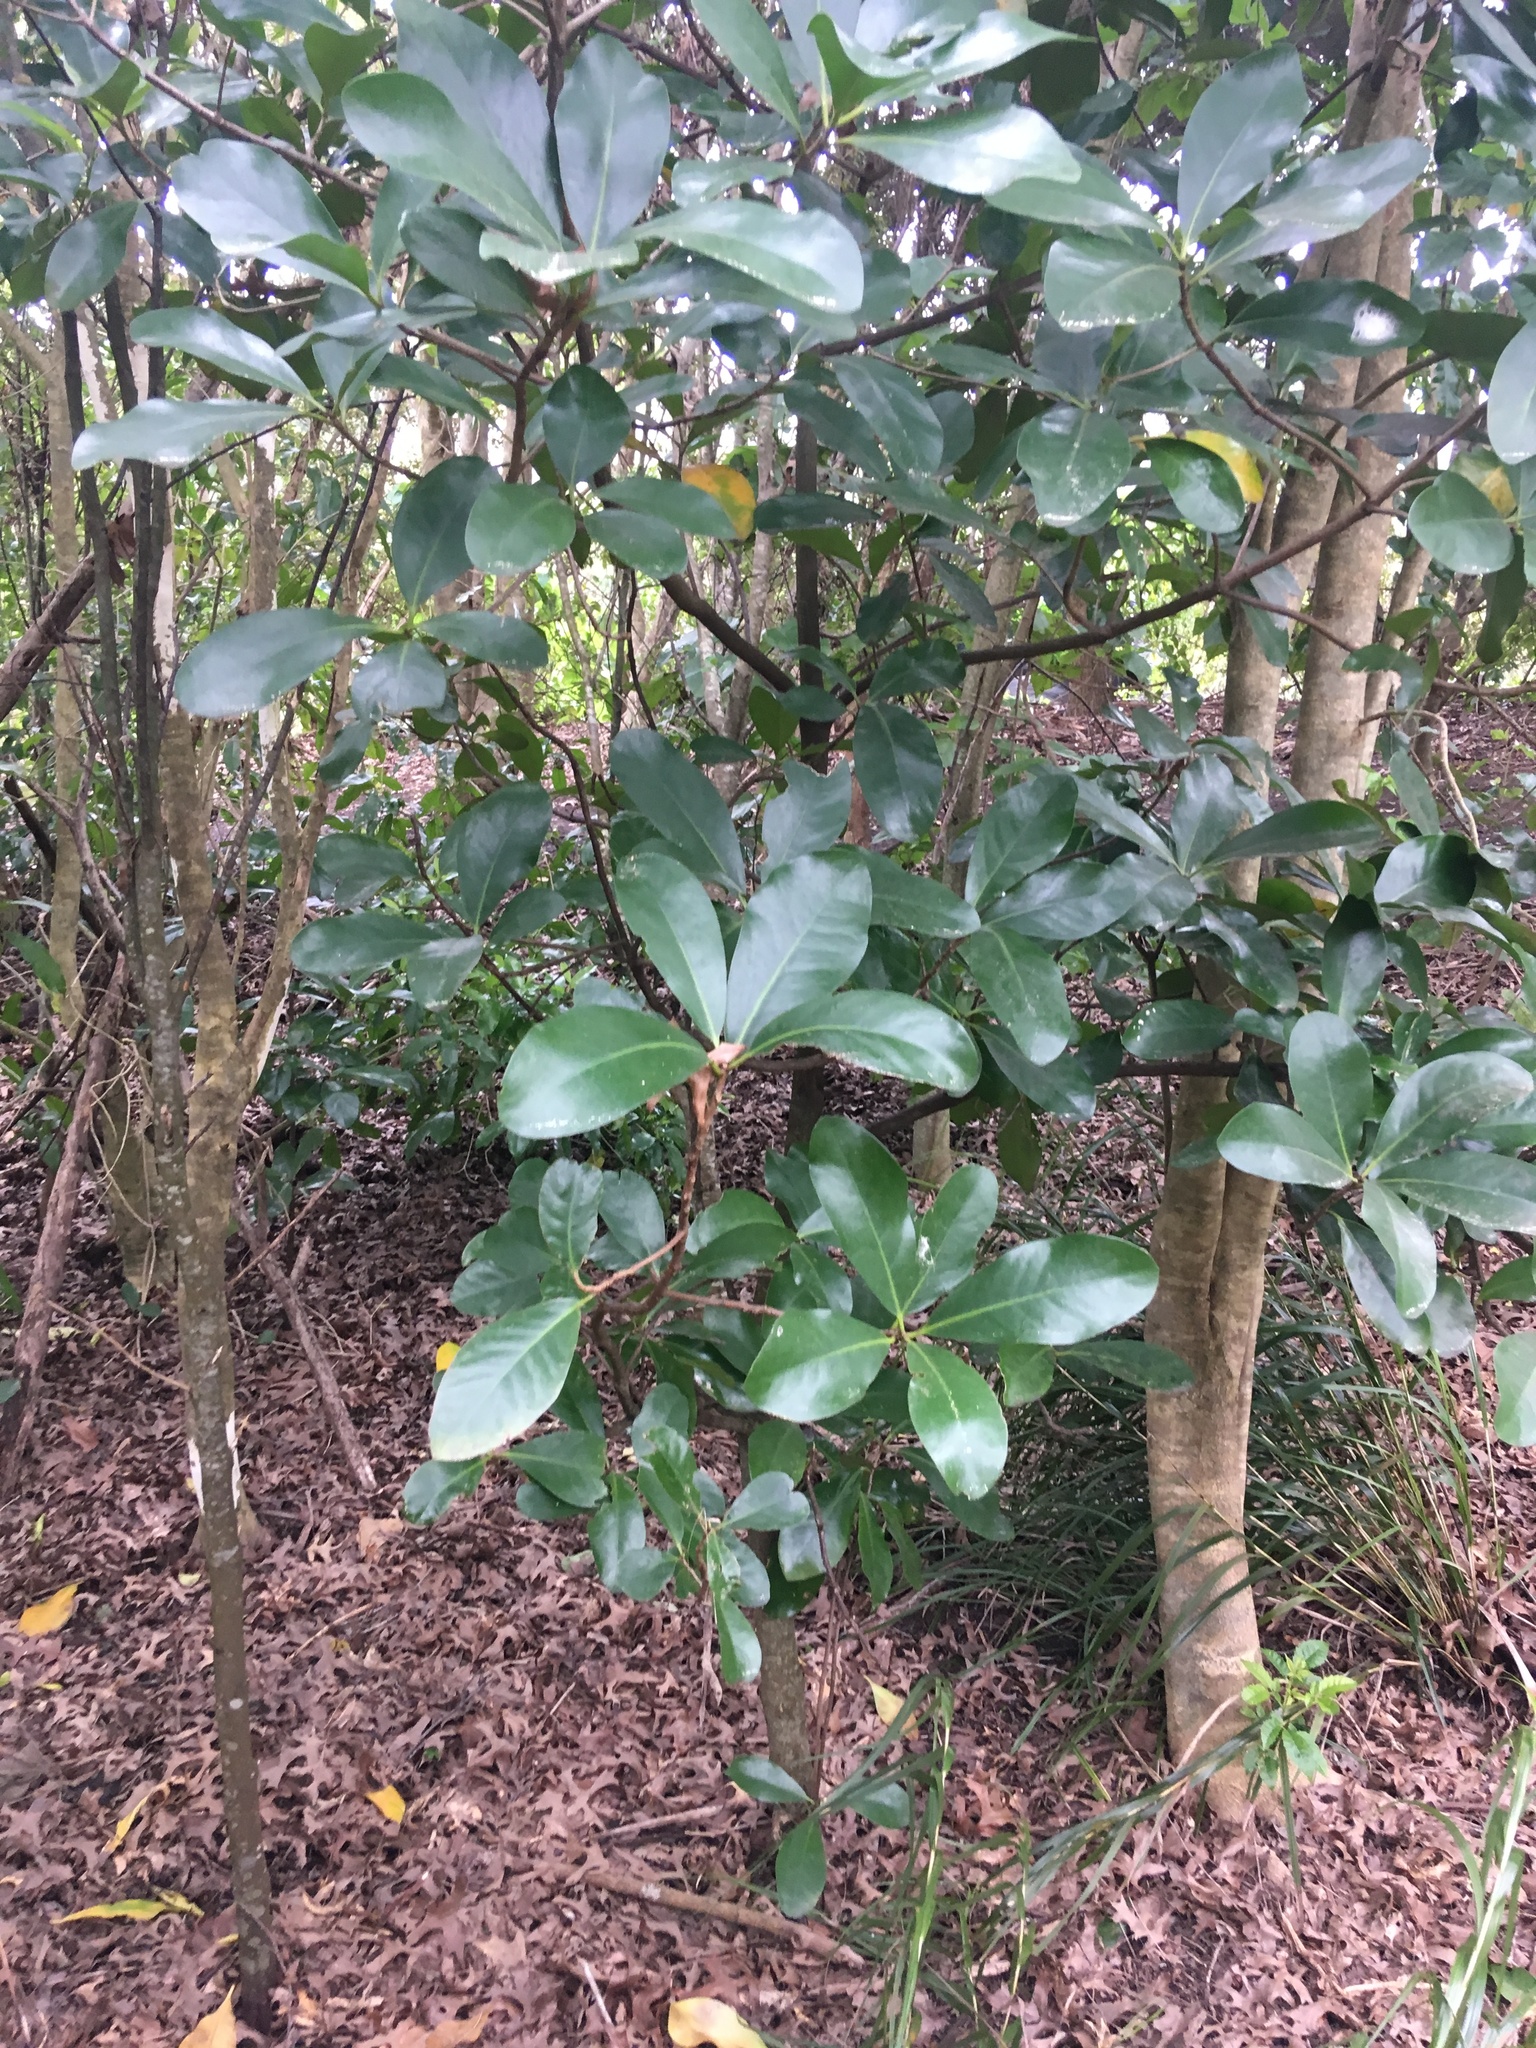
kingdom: Plantae
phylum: Tracheophyta
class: Magnoliopsida
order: Cucurbitales
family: Corynocarpaceae
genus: Corynocarpus
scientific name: Corynocarpus laevigatus
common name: New zealand laurel
